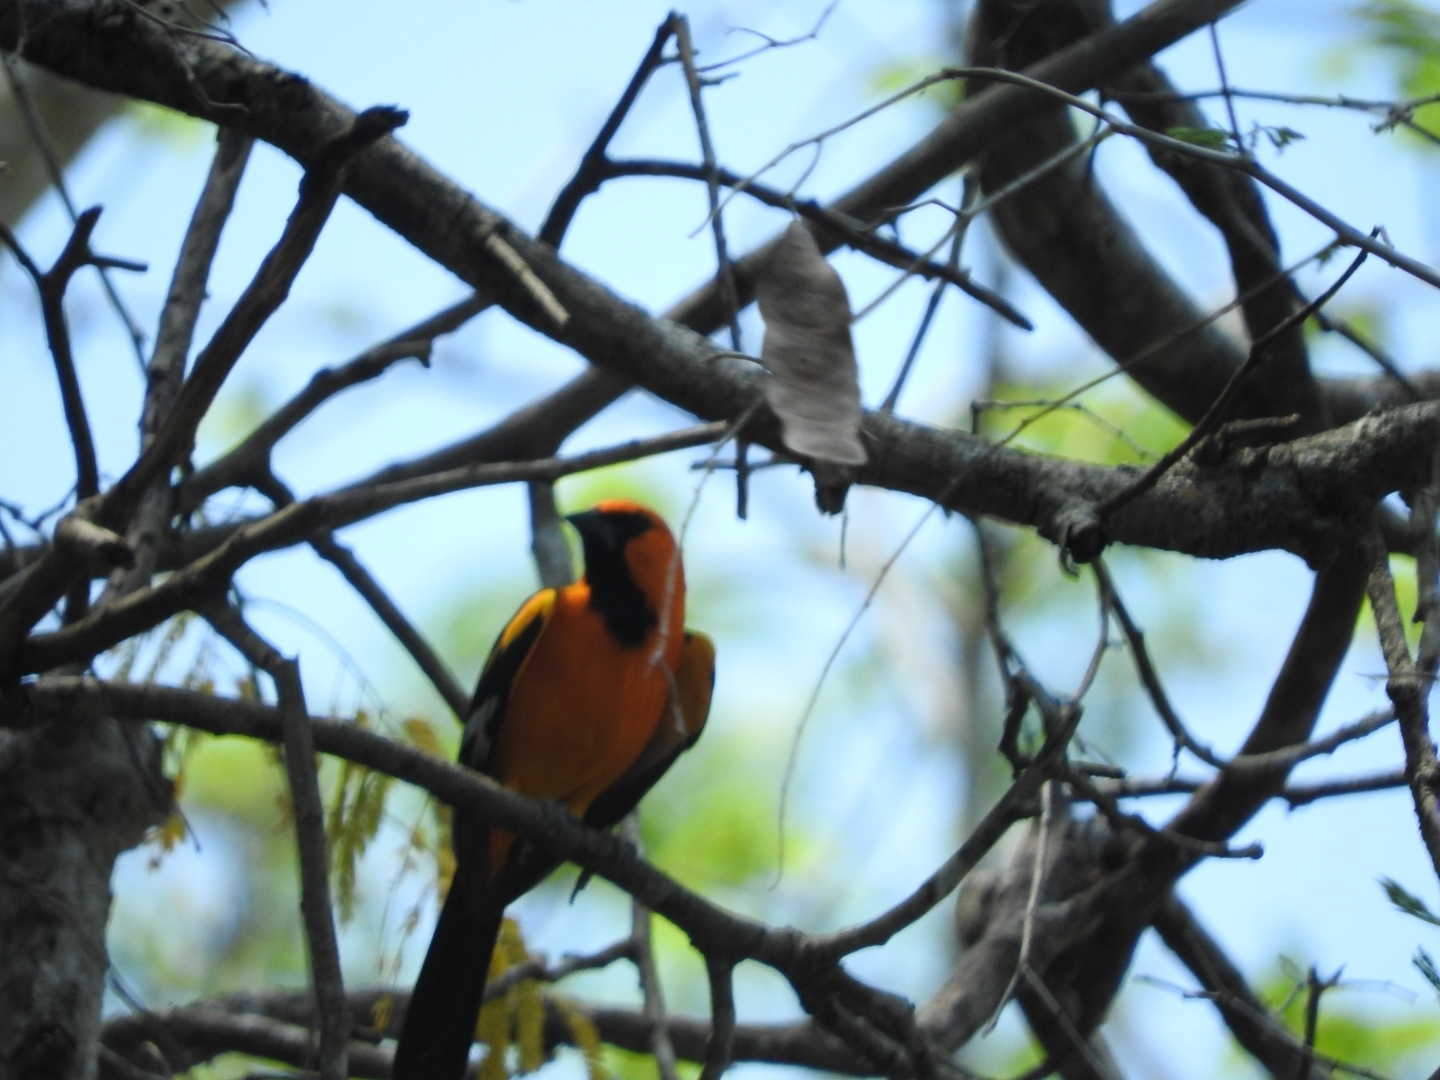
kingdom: Animalia
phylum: Chordata
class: Aves
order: Passeriformes
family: Icteridae
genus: Icterus
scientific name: Icterus gularis
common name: Altamira oriole
